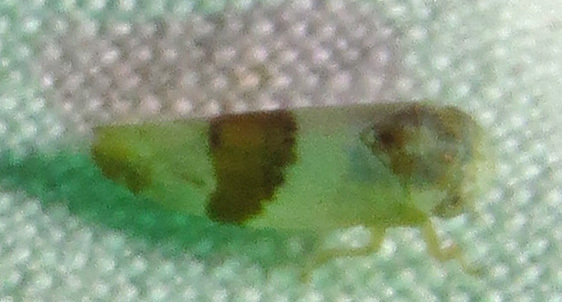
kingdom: Animalia
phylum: Arthropoda
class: Insecta
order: Hemiptera
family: Cicadellidae
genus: Norvellina
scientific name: Norvellina seminuda
